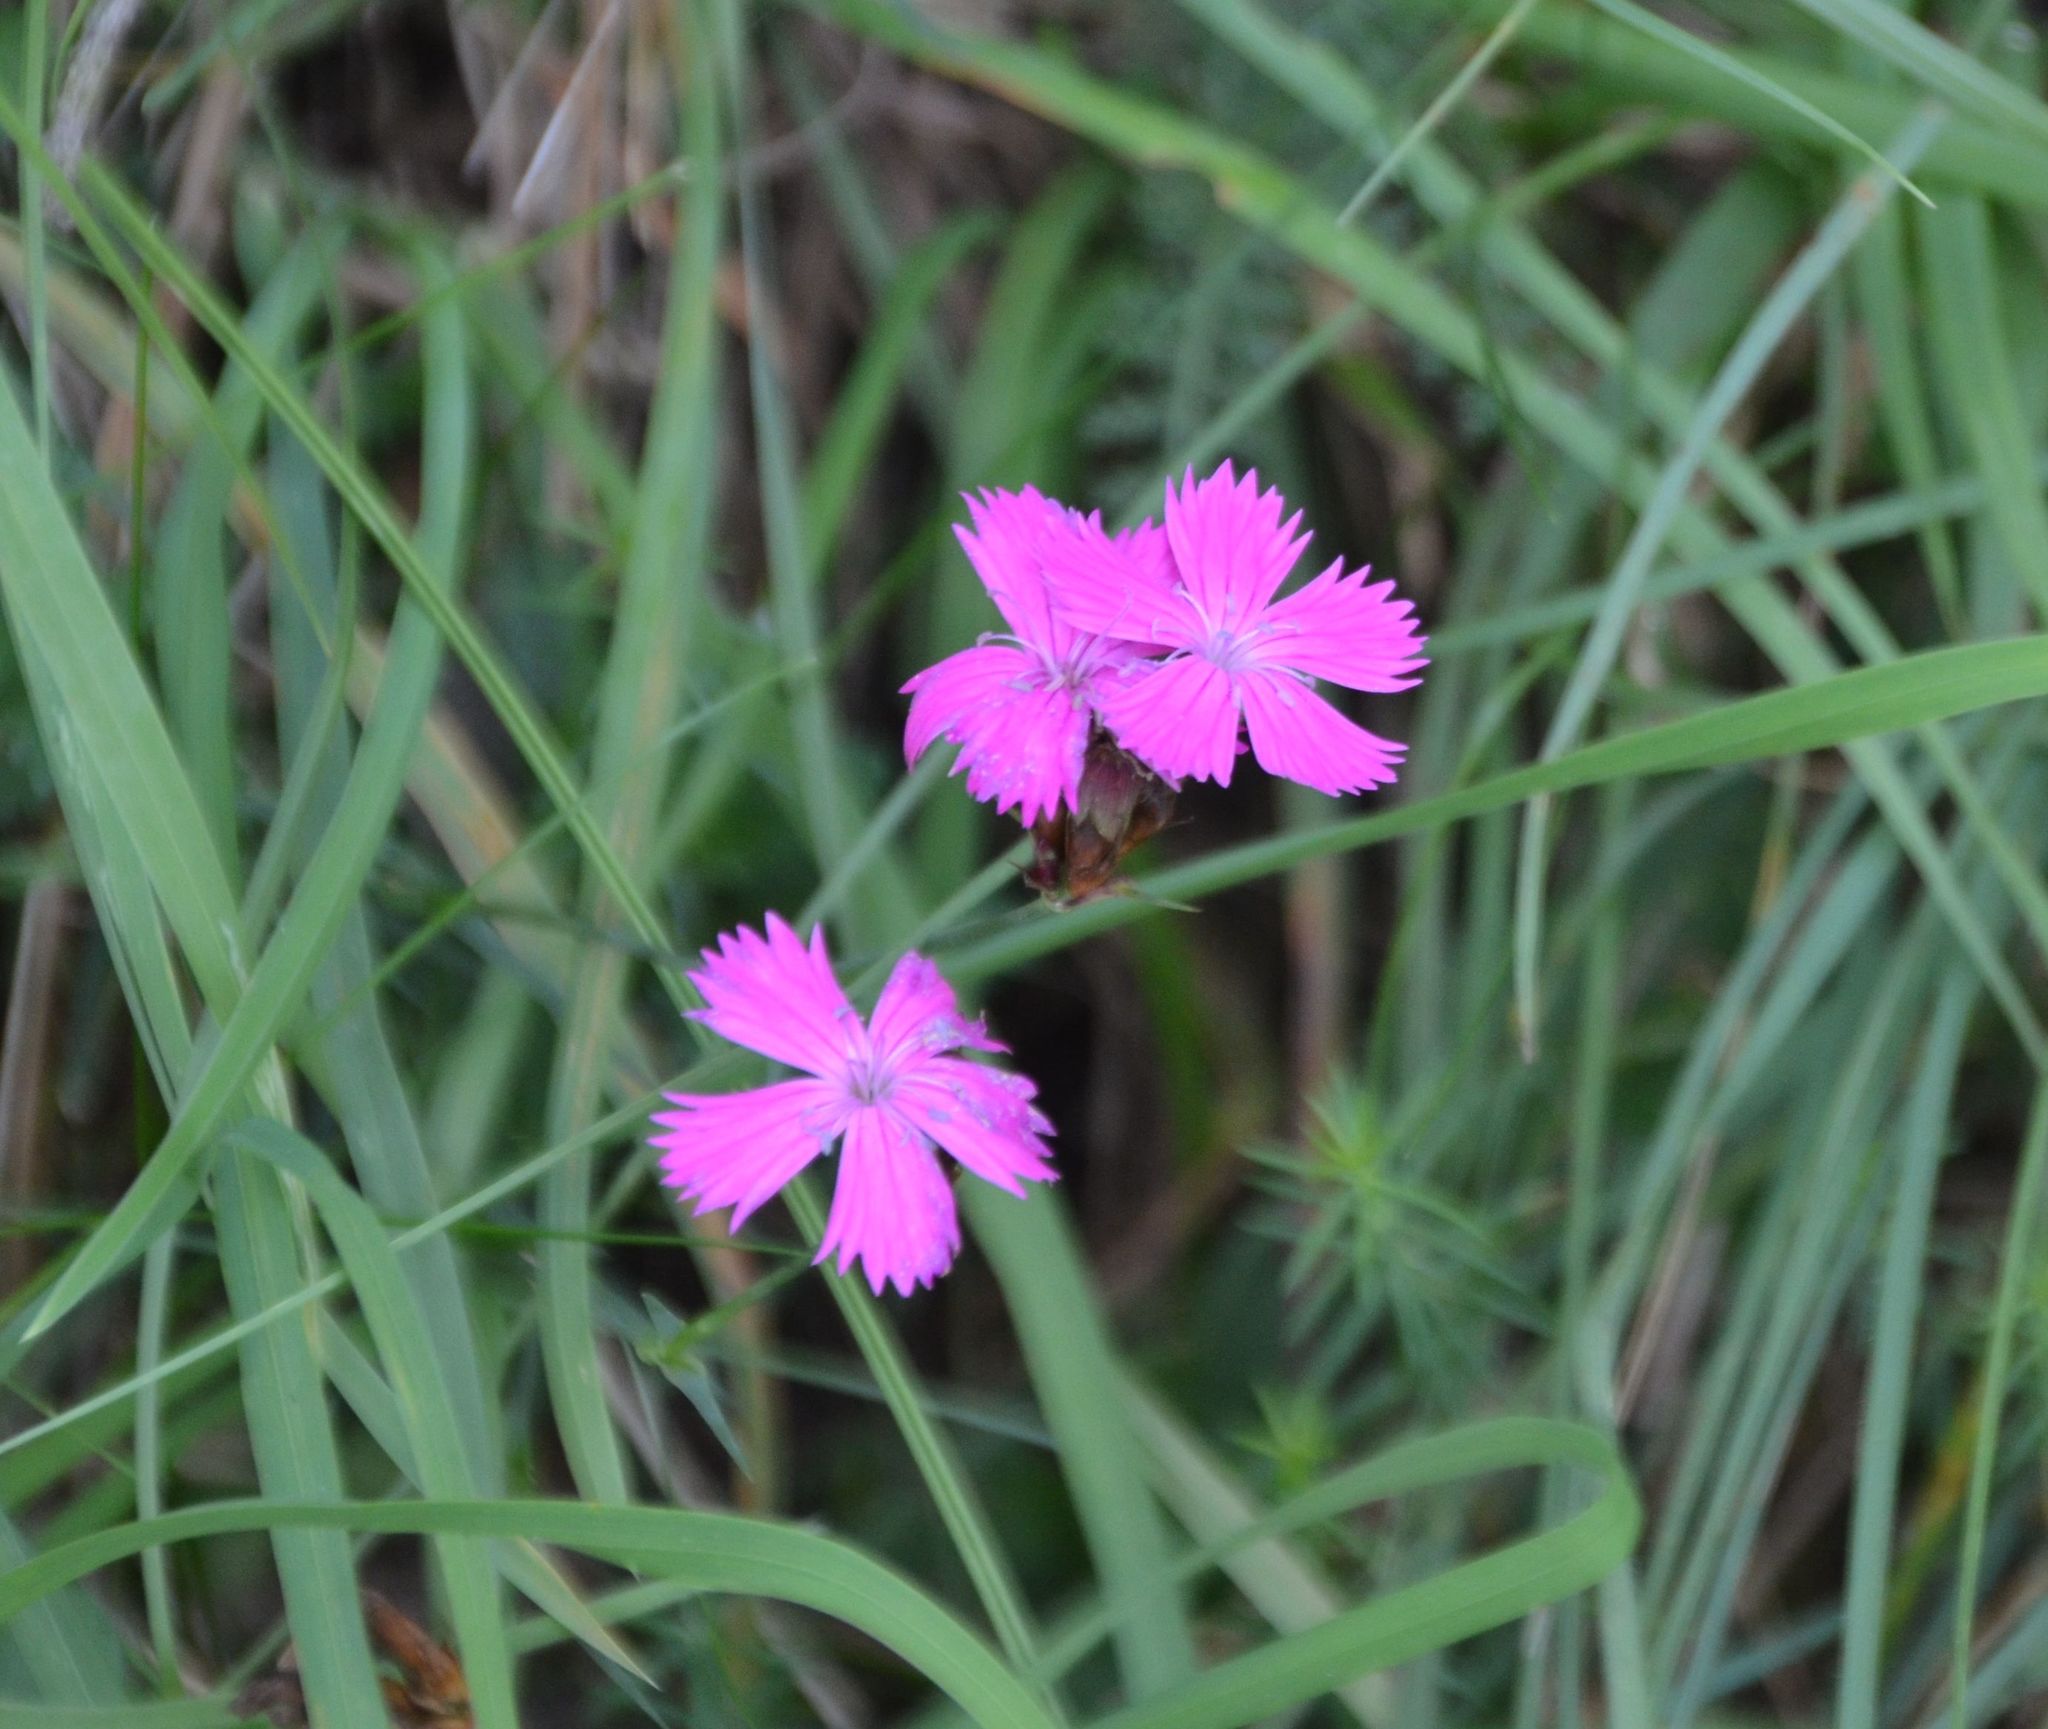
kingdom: Plantae
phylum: Tracheophyta
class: Magnoliopsida
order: Caryophyllales
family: Caryophyllaceae
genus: Dianthus
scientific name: Dianthus carthusianorum
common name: Carthusian pink
